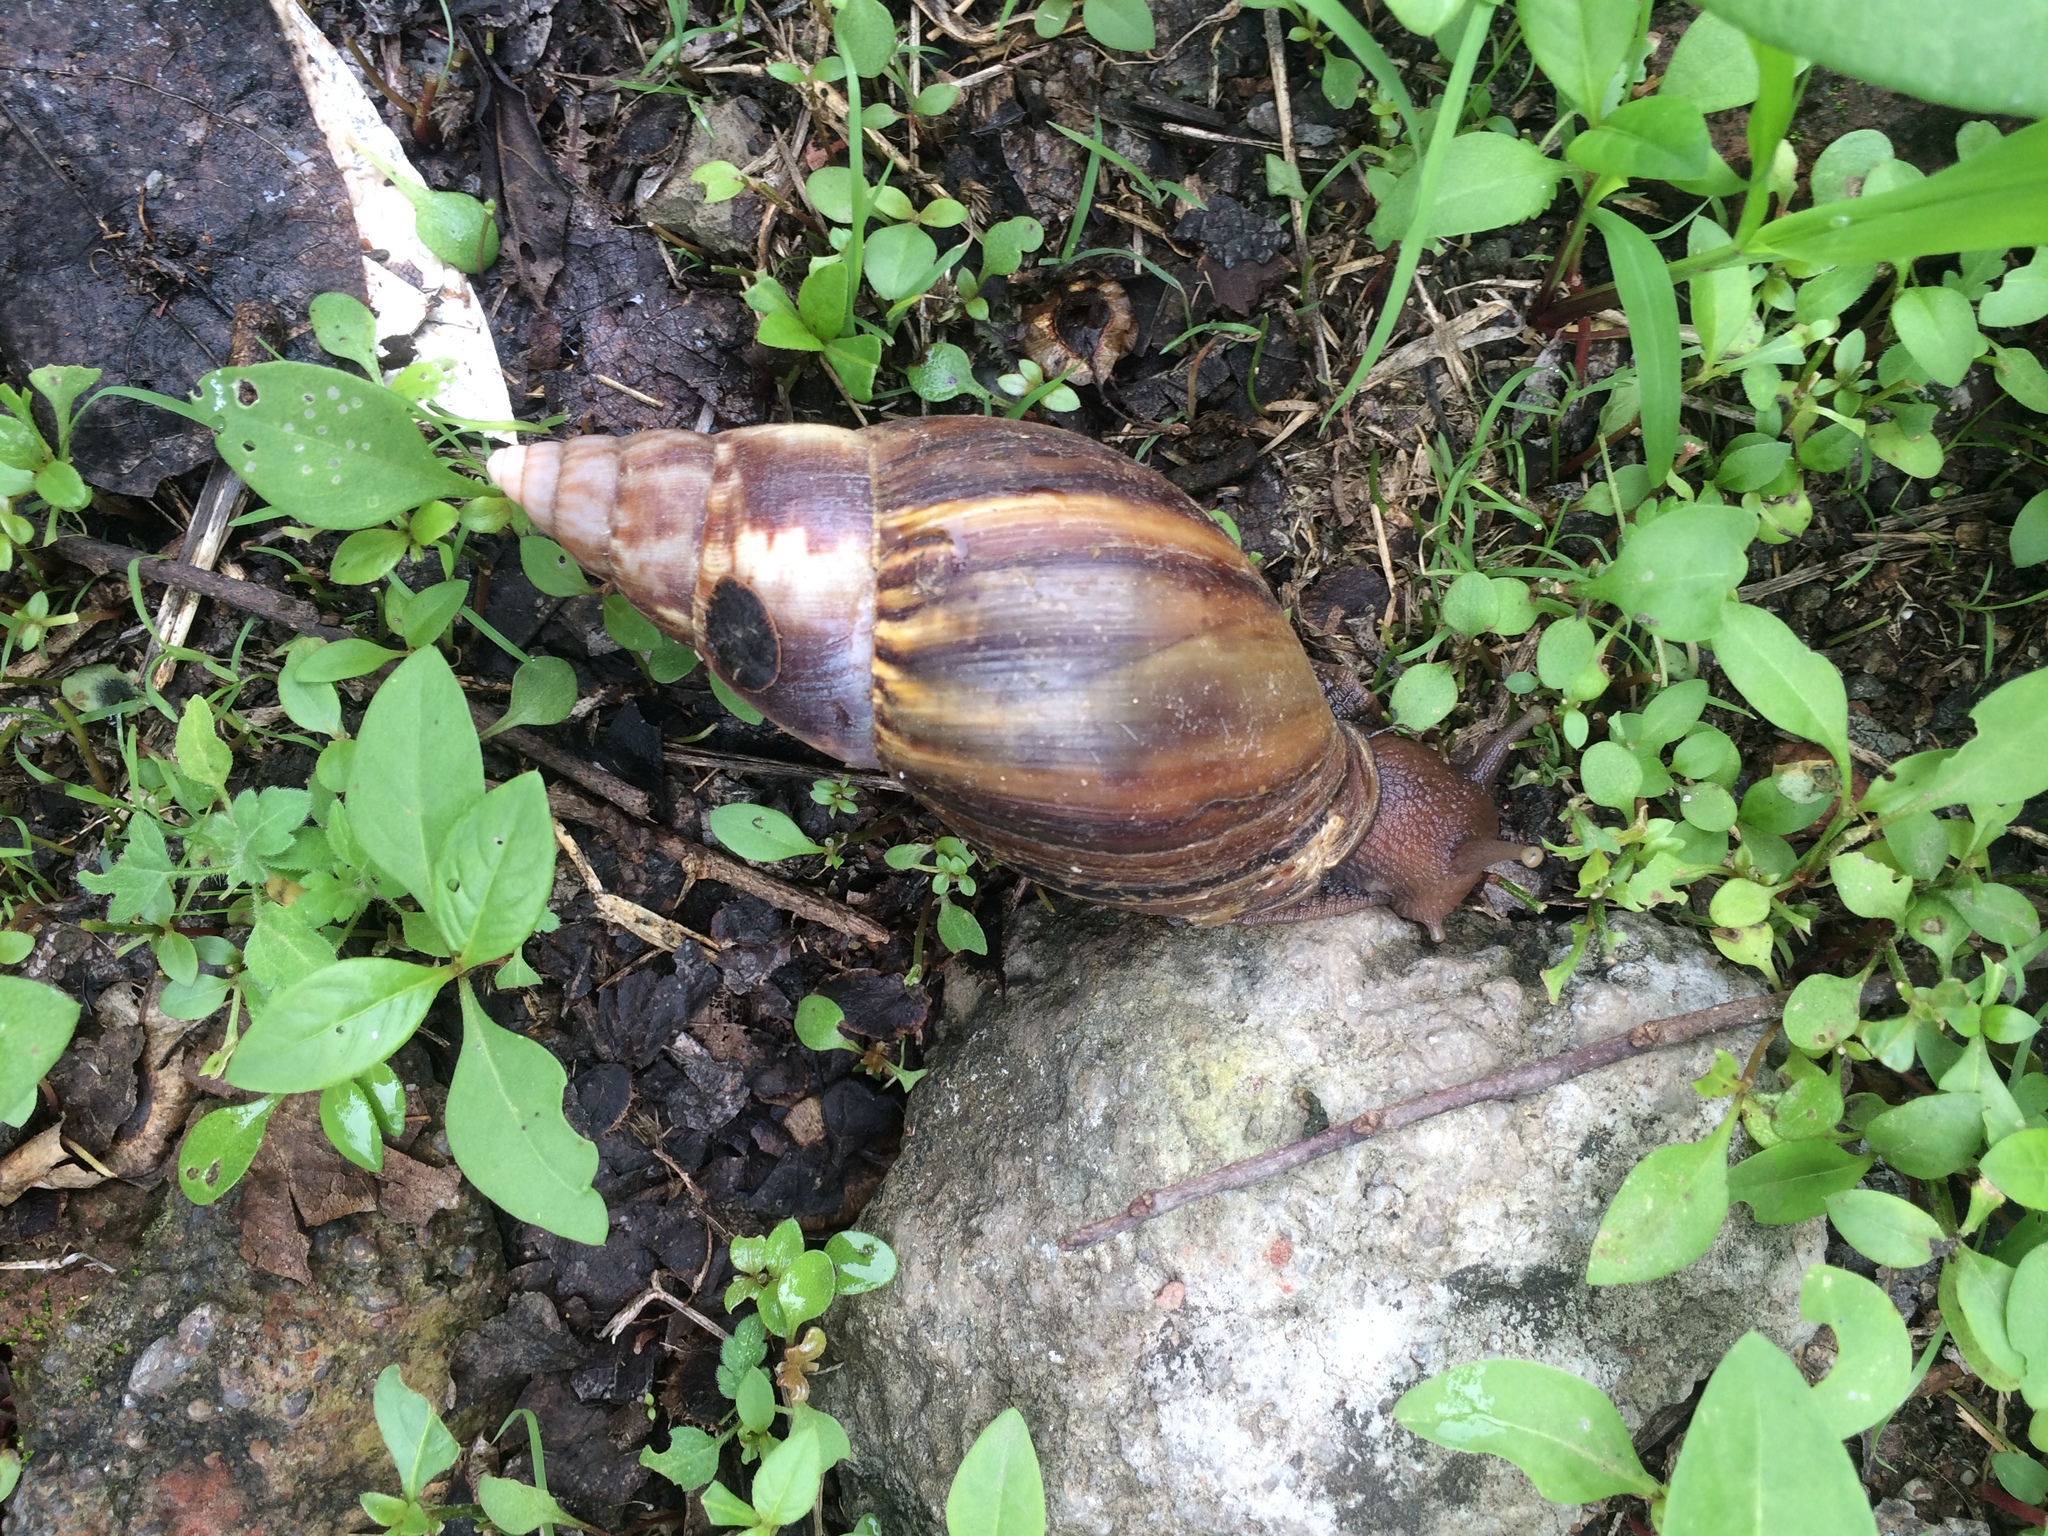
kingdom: Animalia
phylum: Mollusca
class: Gastropoda
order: Stylommatophora
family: Achatinidae
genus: Lissachatina
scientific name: Lissachatina fulica
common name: Giant african snail
